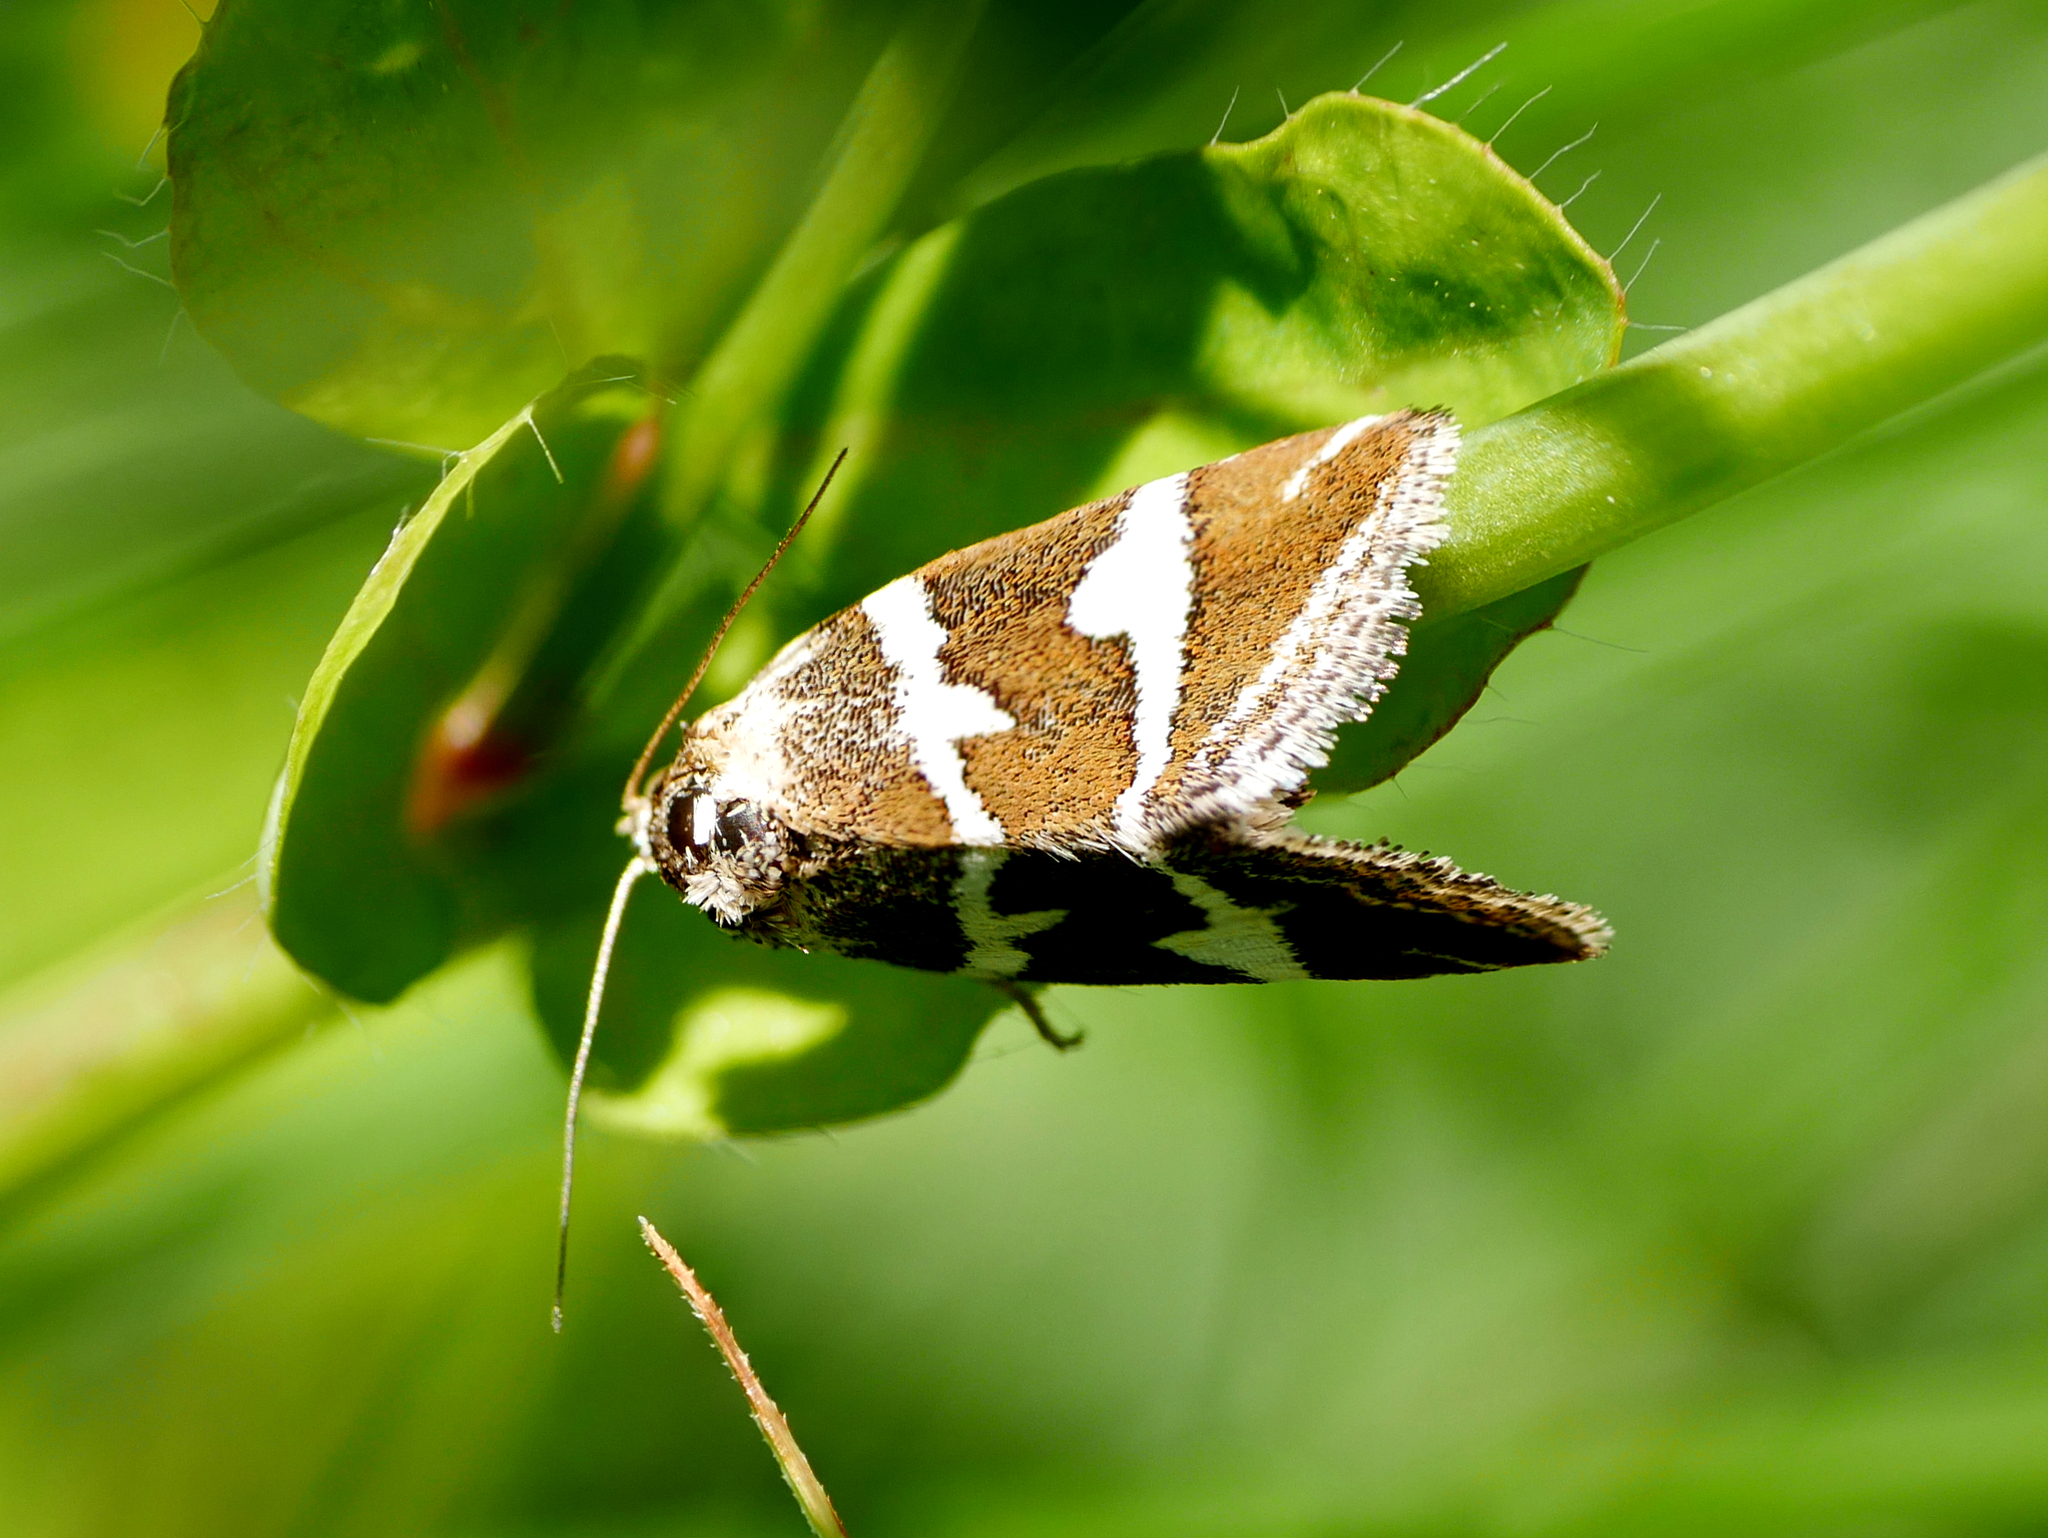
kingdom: Animalia
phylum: Arthropoda
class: Insecta
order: Lepidoptera
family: Noctuidae
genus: Deltote
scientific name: Deltote bankiana
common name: Silver barred
